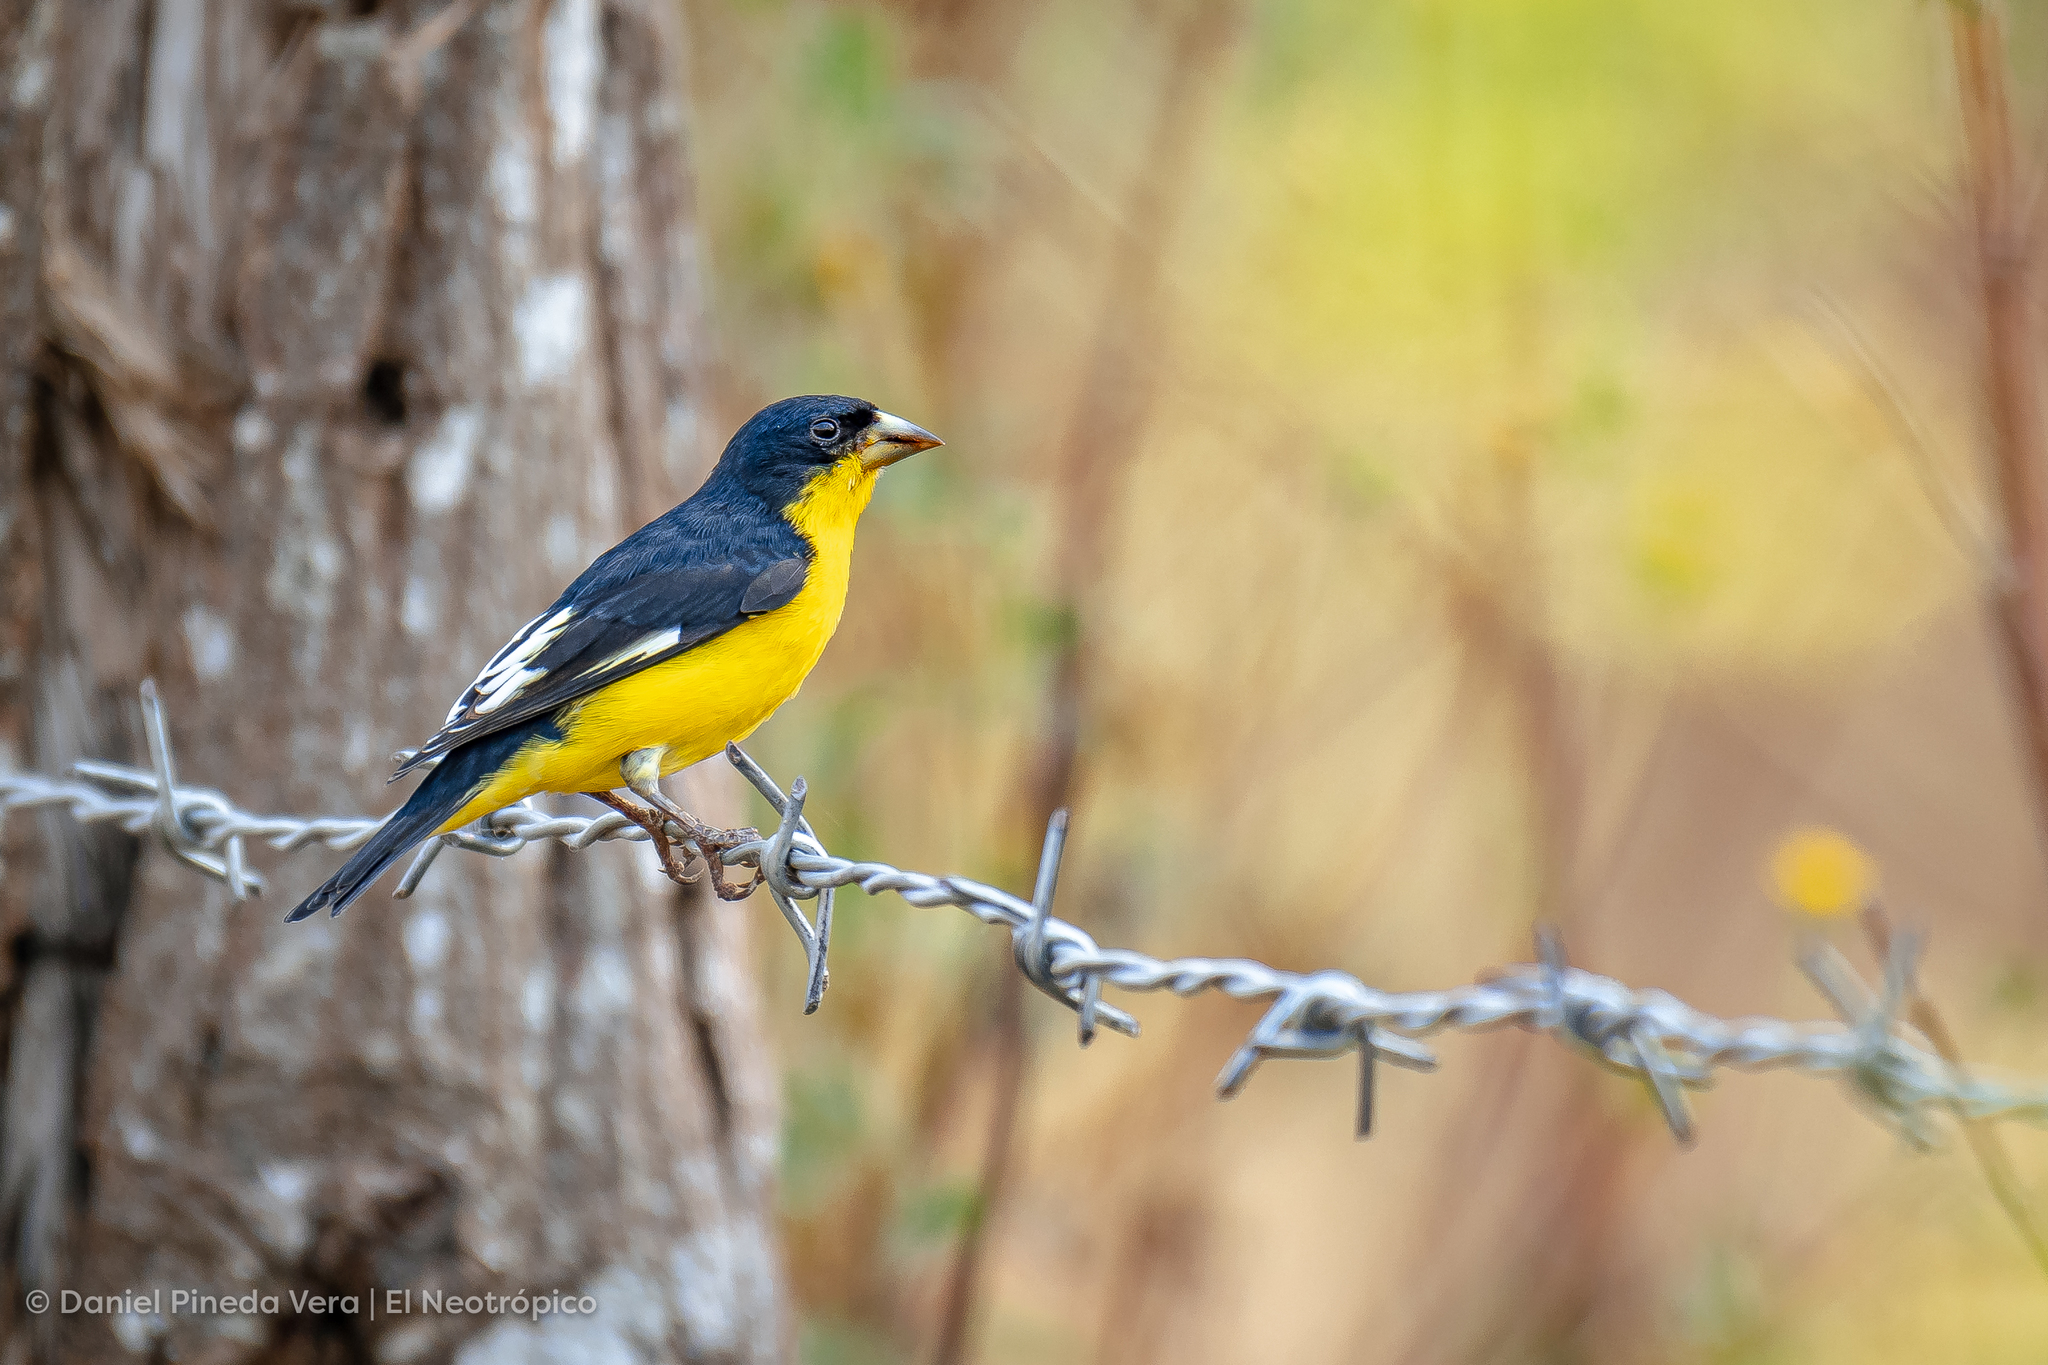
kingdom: Animalia
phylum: Chordata
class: Aves
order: Passeriformes
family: Fringillidae
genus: Spinus
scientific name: Spinus psaltria
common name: Lesser goldfinch
